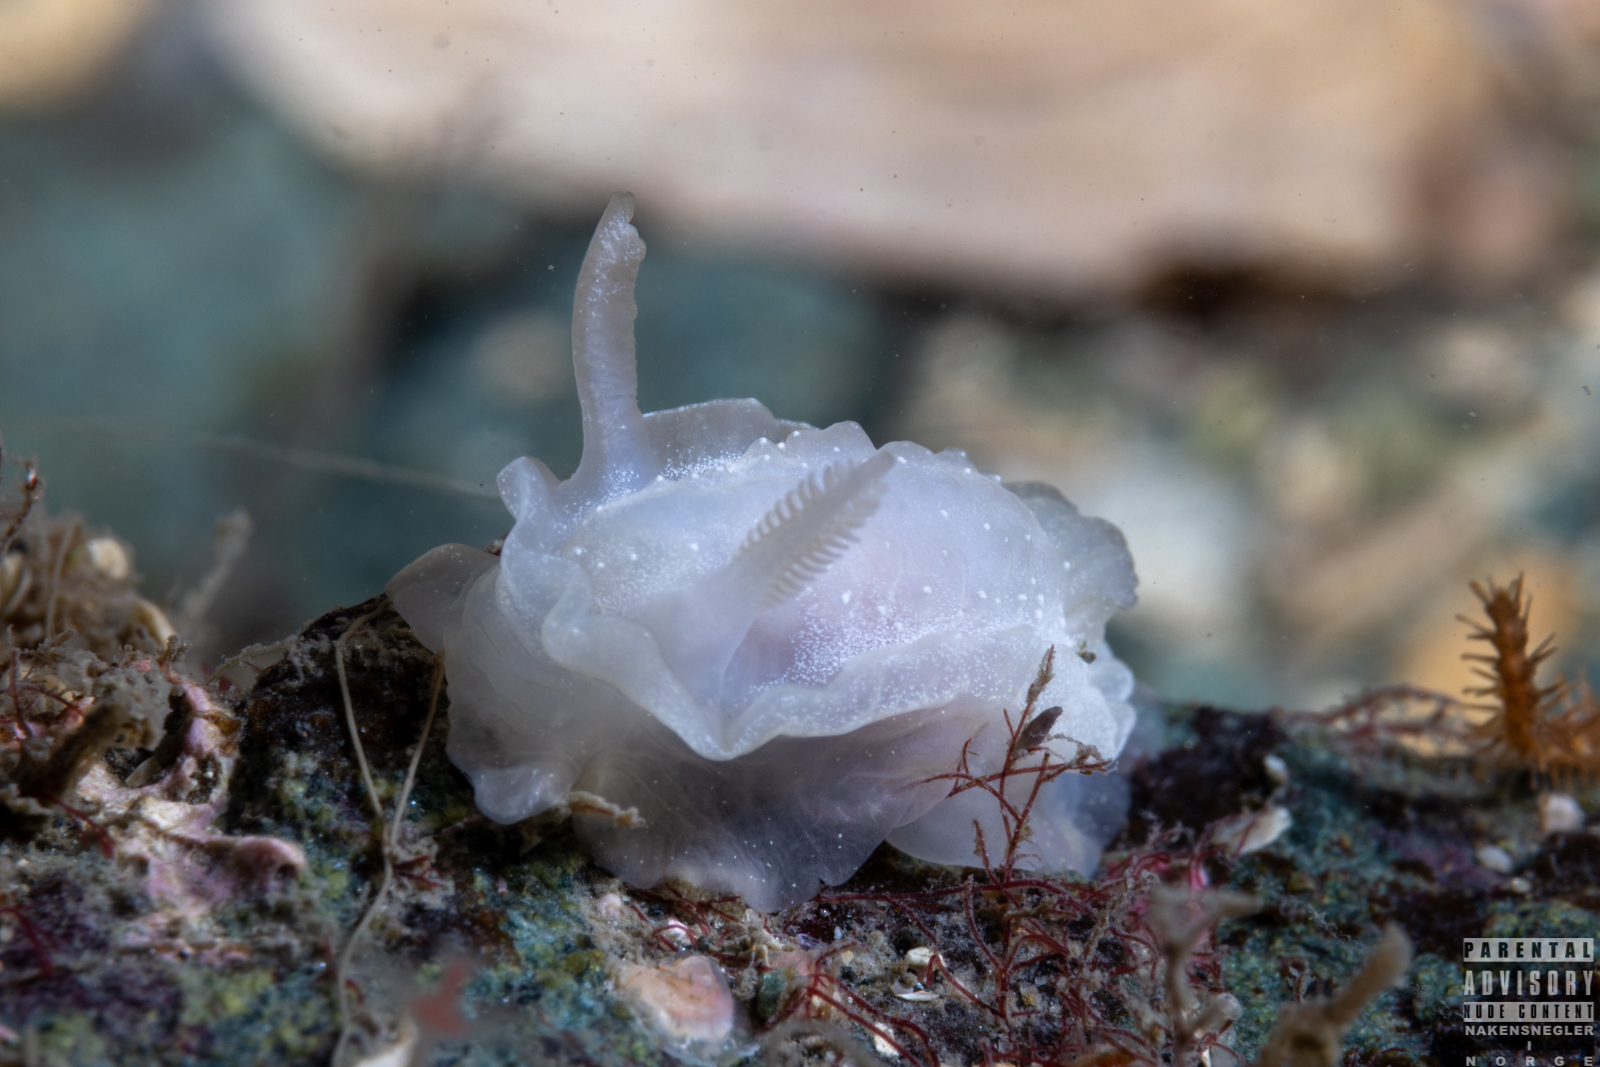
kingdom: Animalia
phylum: Mollusca
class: Gastropoda
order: Nudibranchia
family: Goniodorididae
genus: Okenia
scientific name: Okenia
